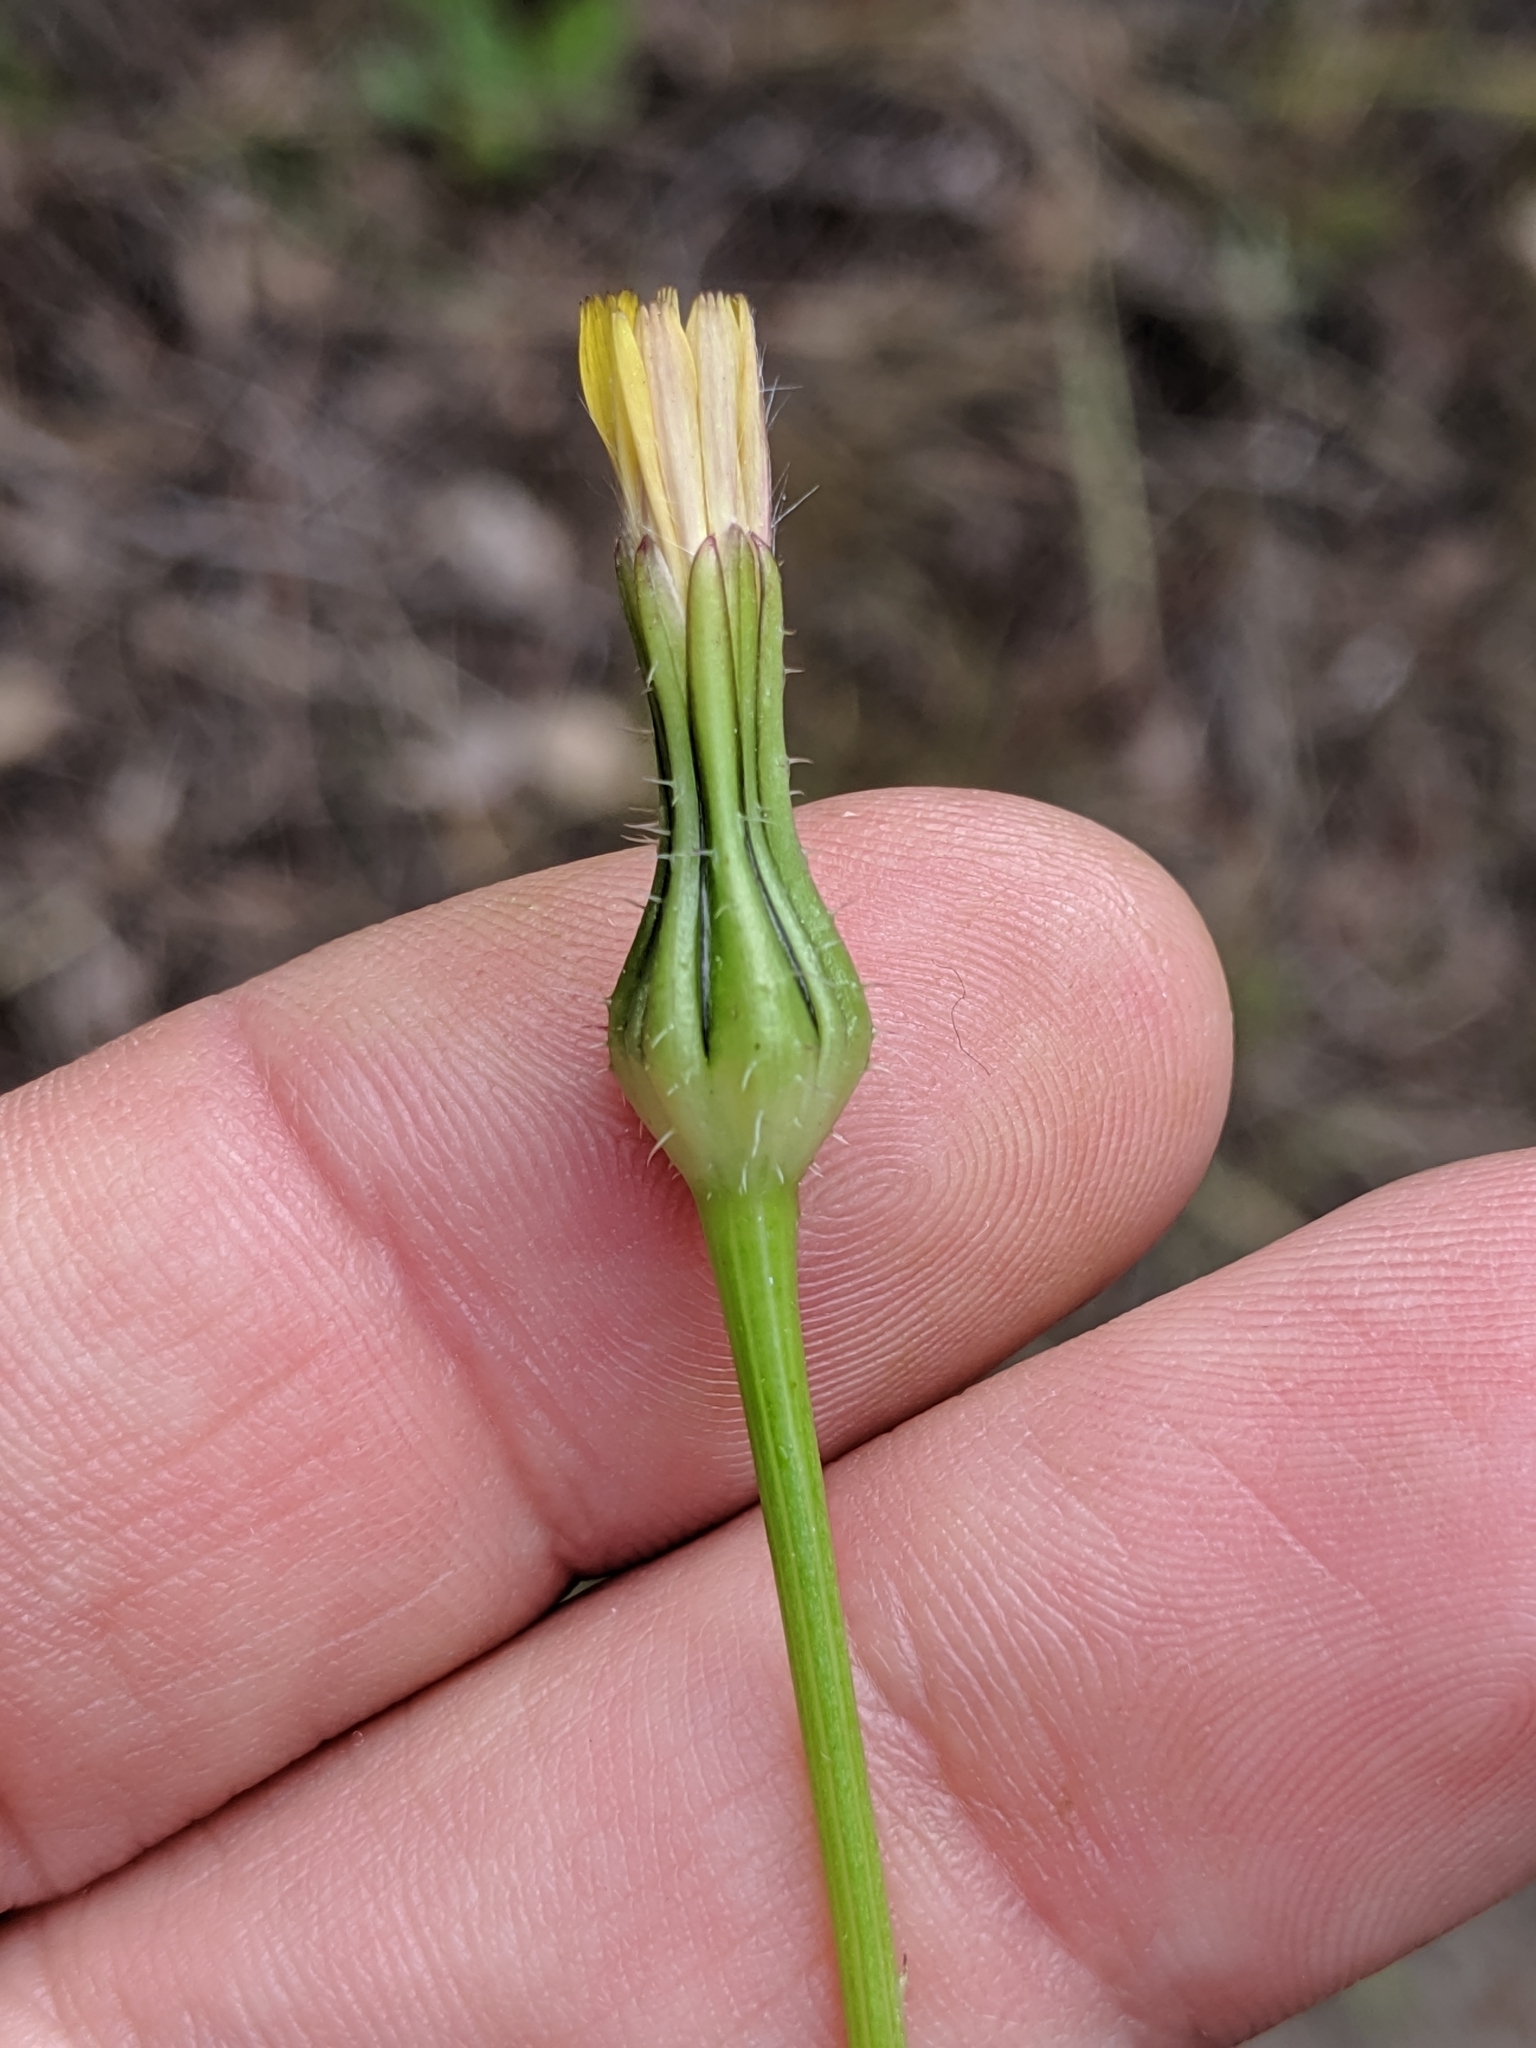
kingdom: Plantae
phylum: Tracheophyta
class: Magnoliopsida
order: Asterales
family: Asteraceae
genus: Urospermum
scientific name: Urospermum picroides
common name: False hawkbit
